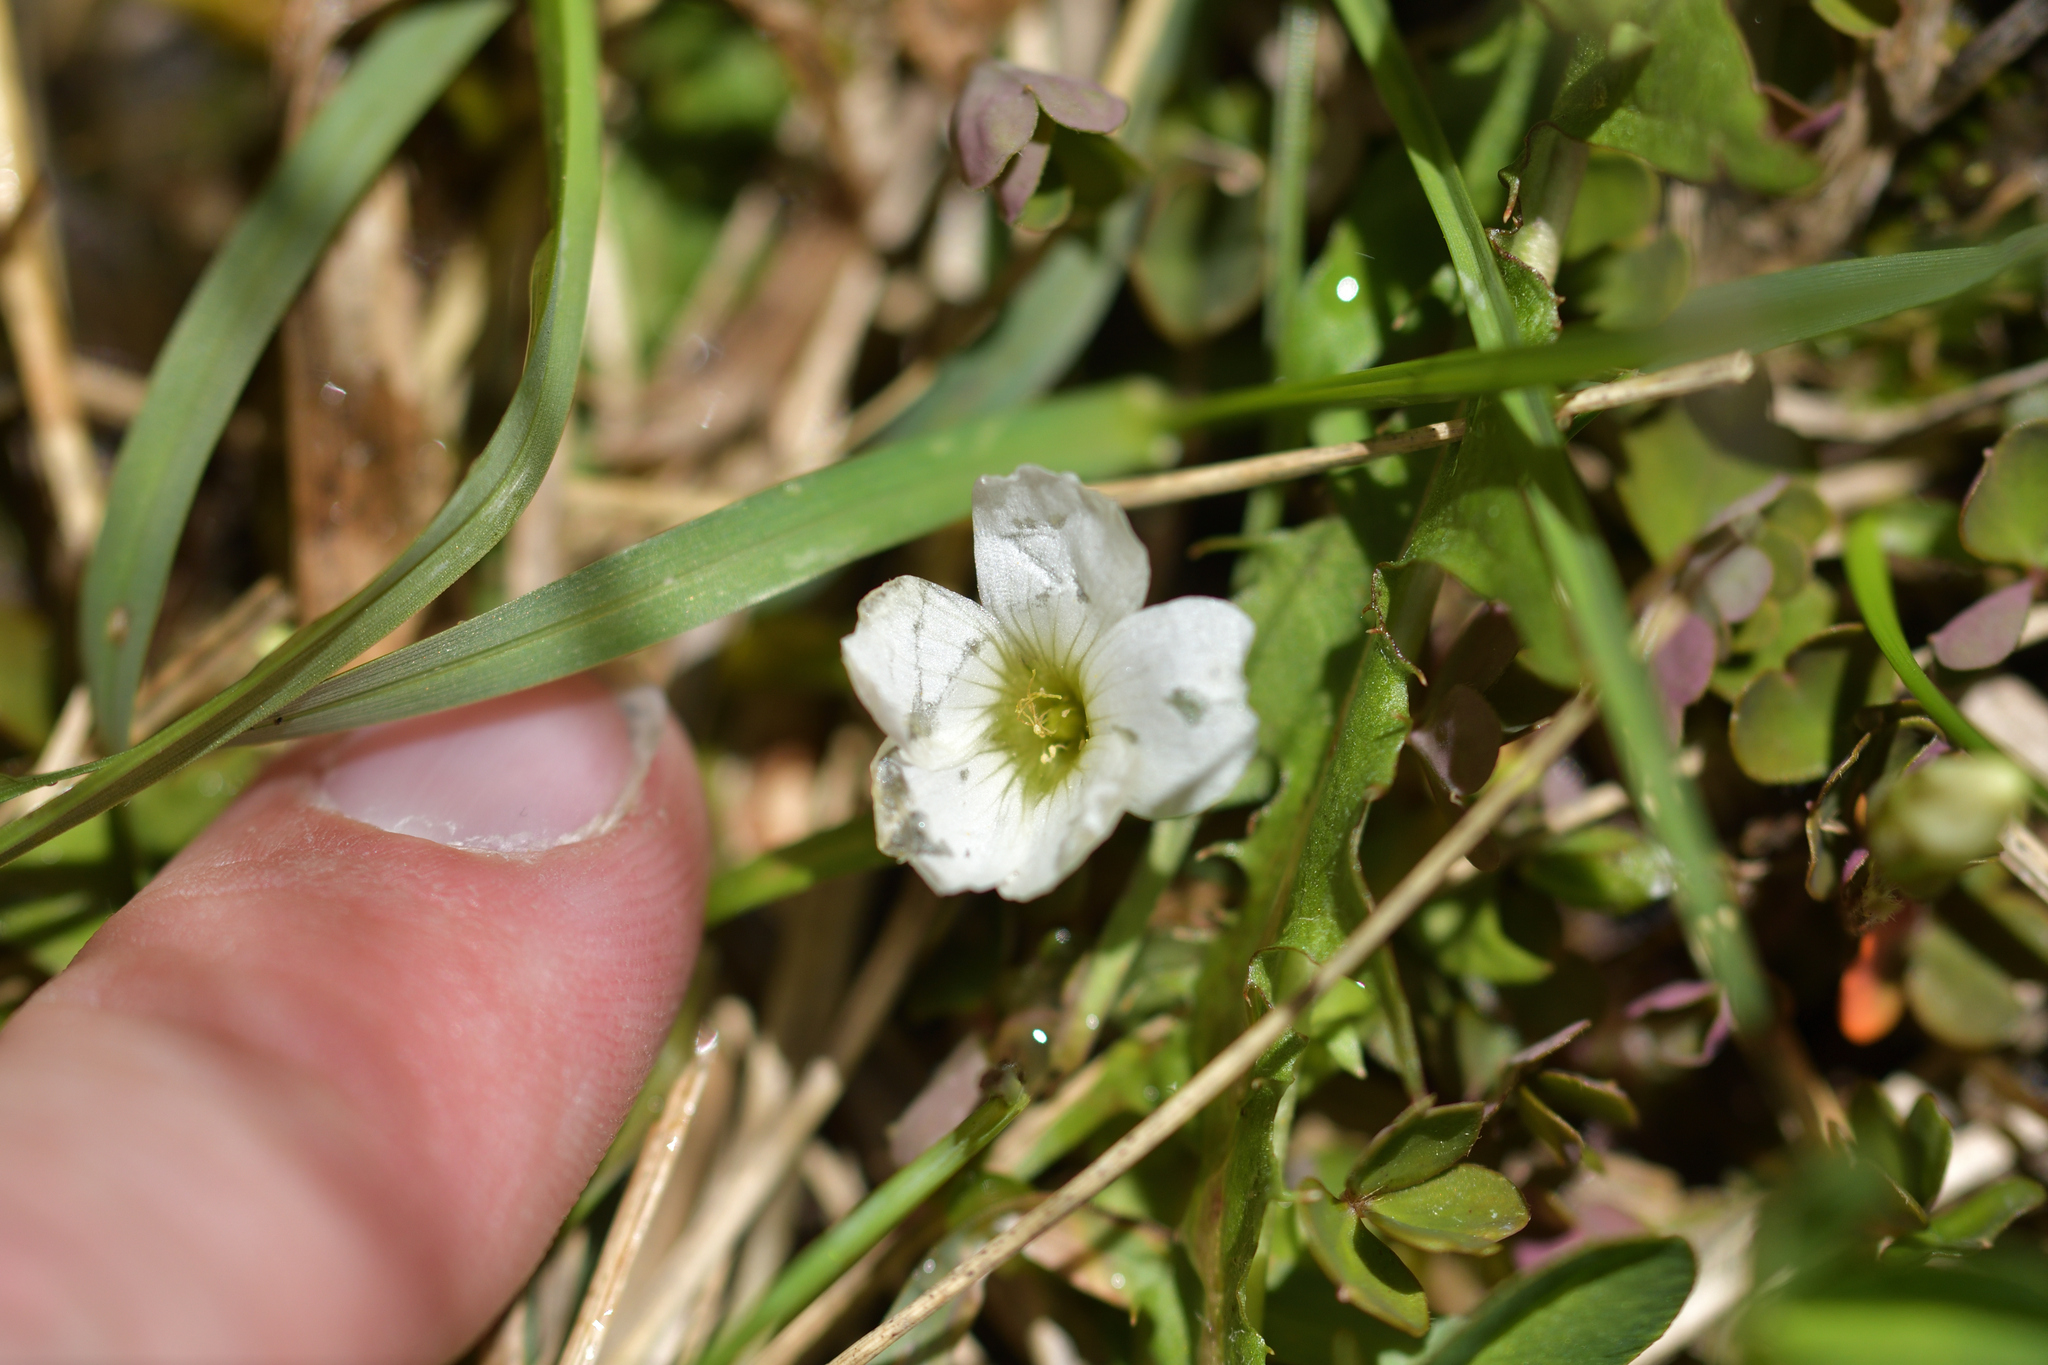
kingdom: Plantae
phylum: Tracheophyta
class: Magnoliopsida
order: Oxalidales
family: Oxalidaceae
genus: Oxalis
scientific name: Oxalis magellanica
